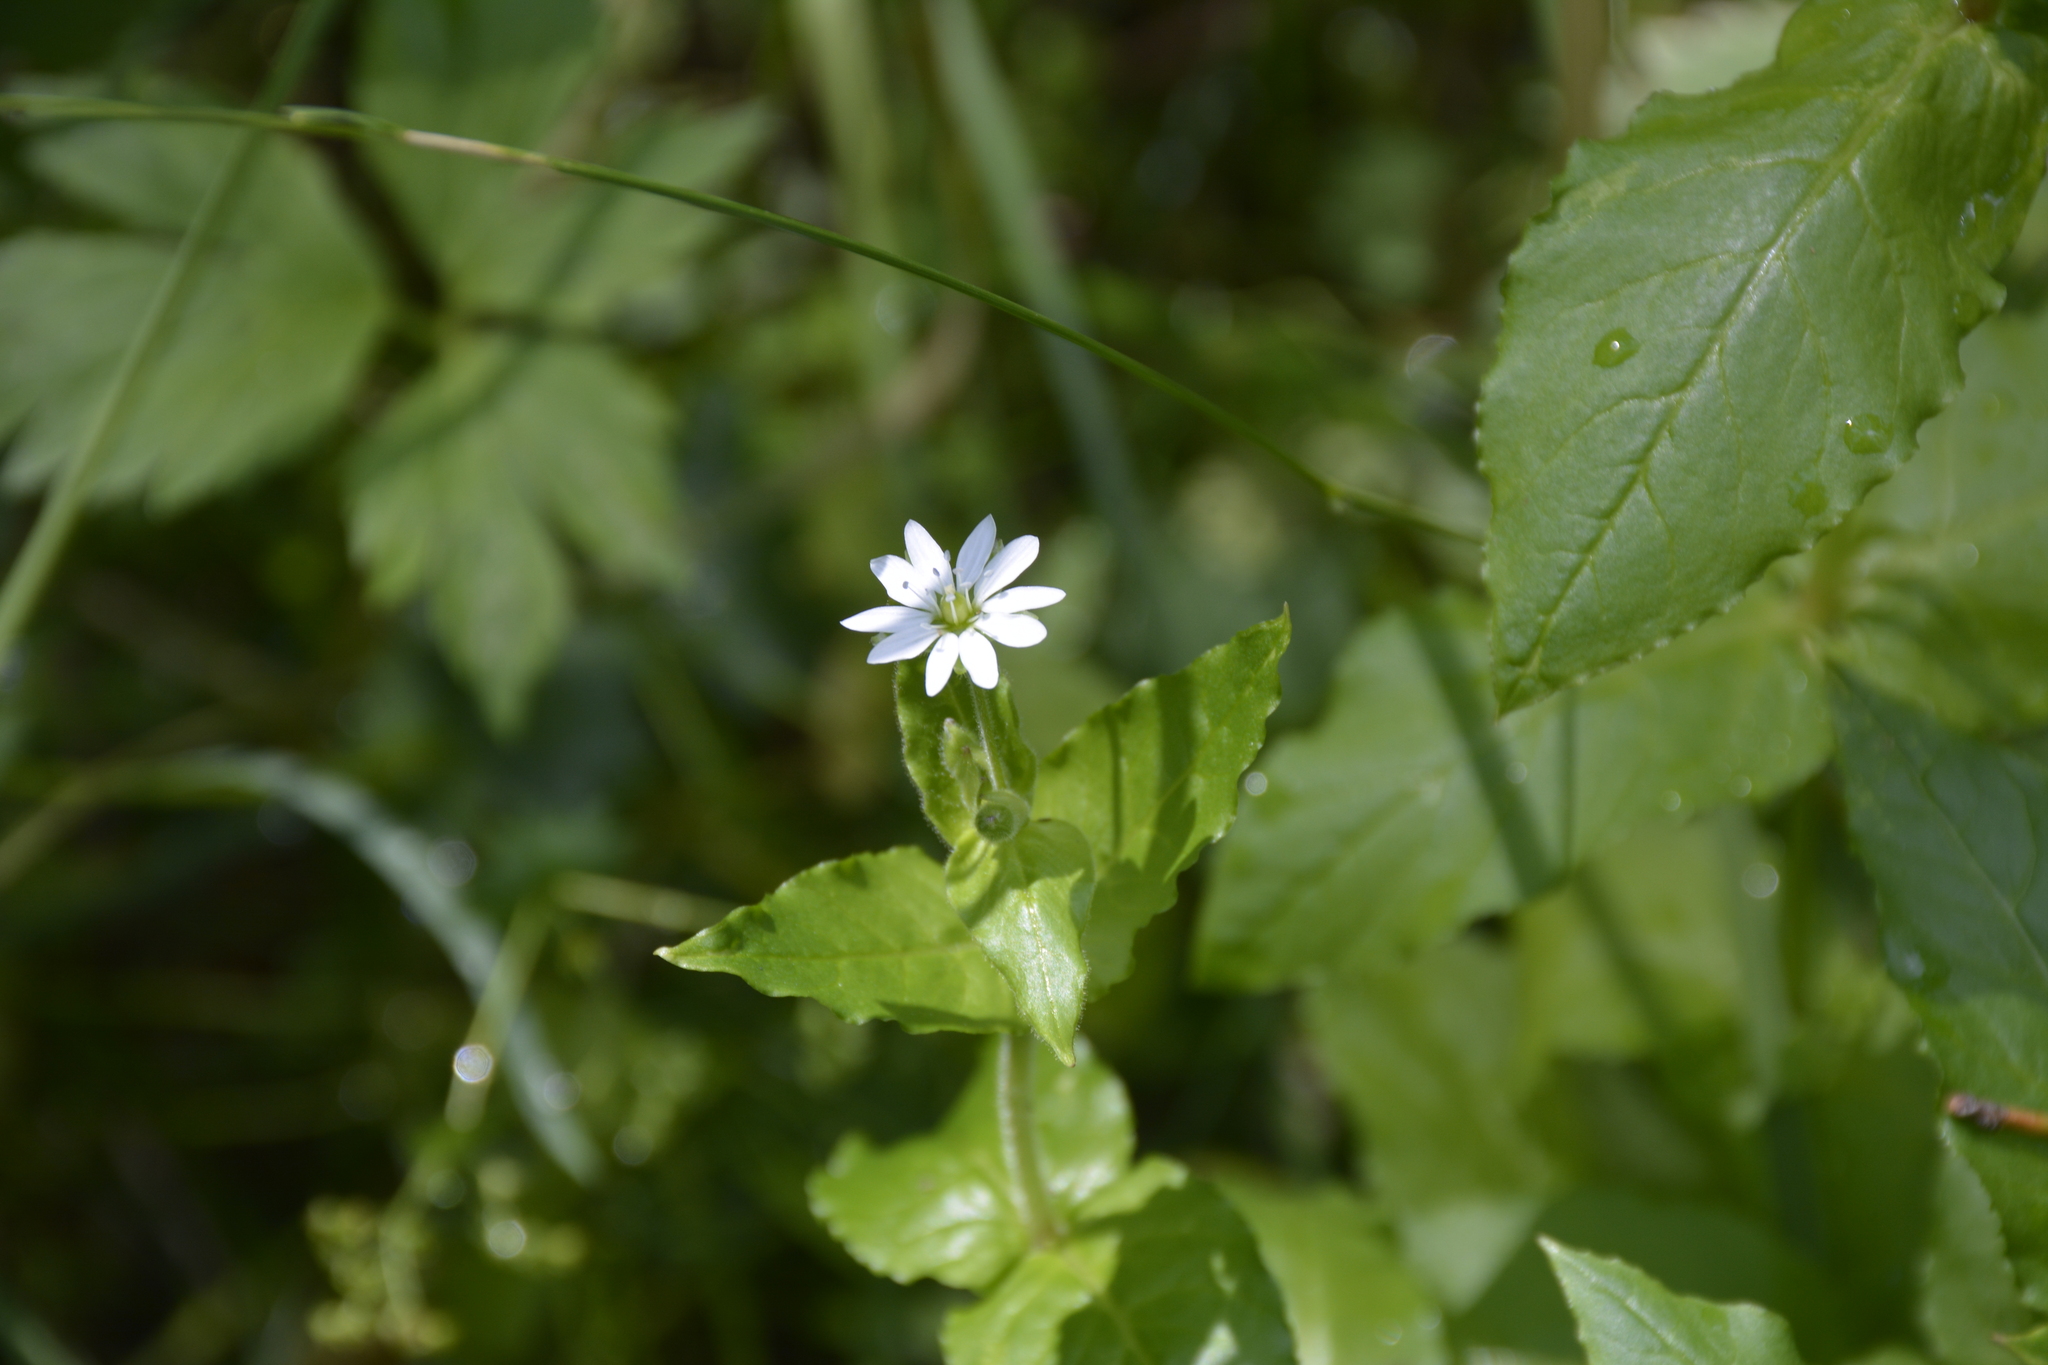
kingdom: Plantae
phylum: Tracheophyta
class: Magnoliopsida
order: Caryophyllales
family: Caryophyllaceae
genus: Stellaria
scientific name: Stellaria aquatica
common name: Water chickweed
